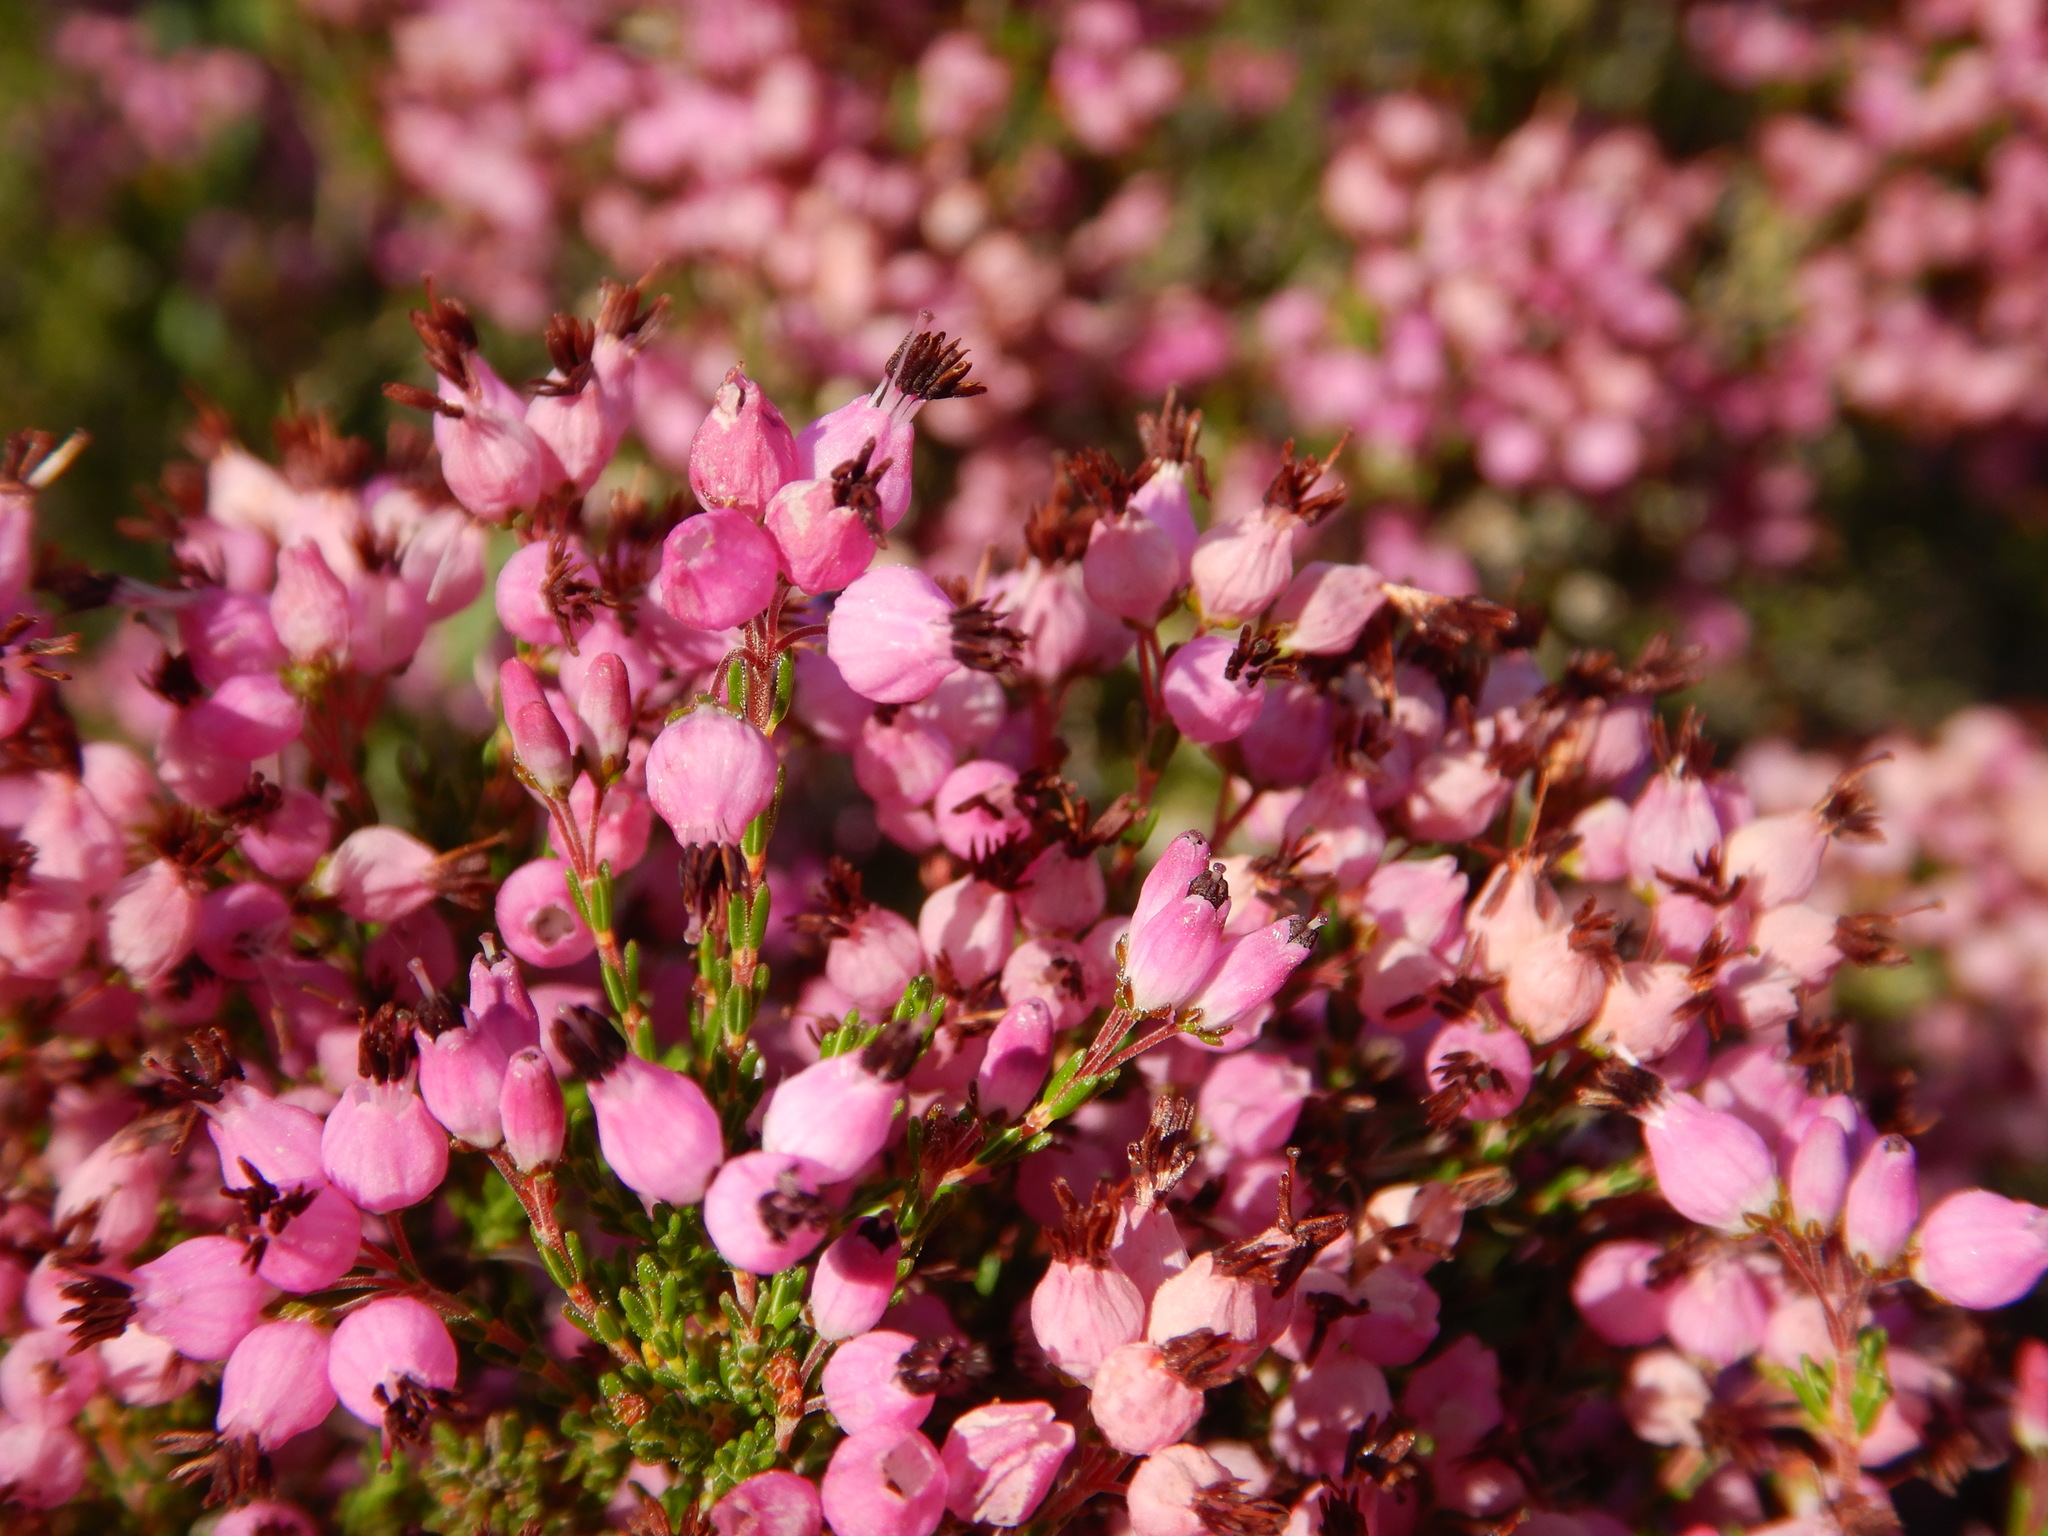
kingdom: Plantae
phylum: Tracheophyta
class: Magnoliopsida
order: Ericales
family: Ericaceae
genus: Erica
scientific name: Erica umbellata
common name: Dwarf spanish heath
